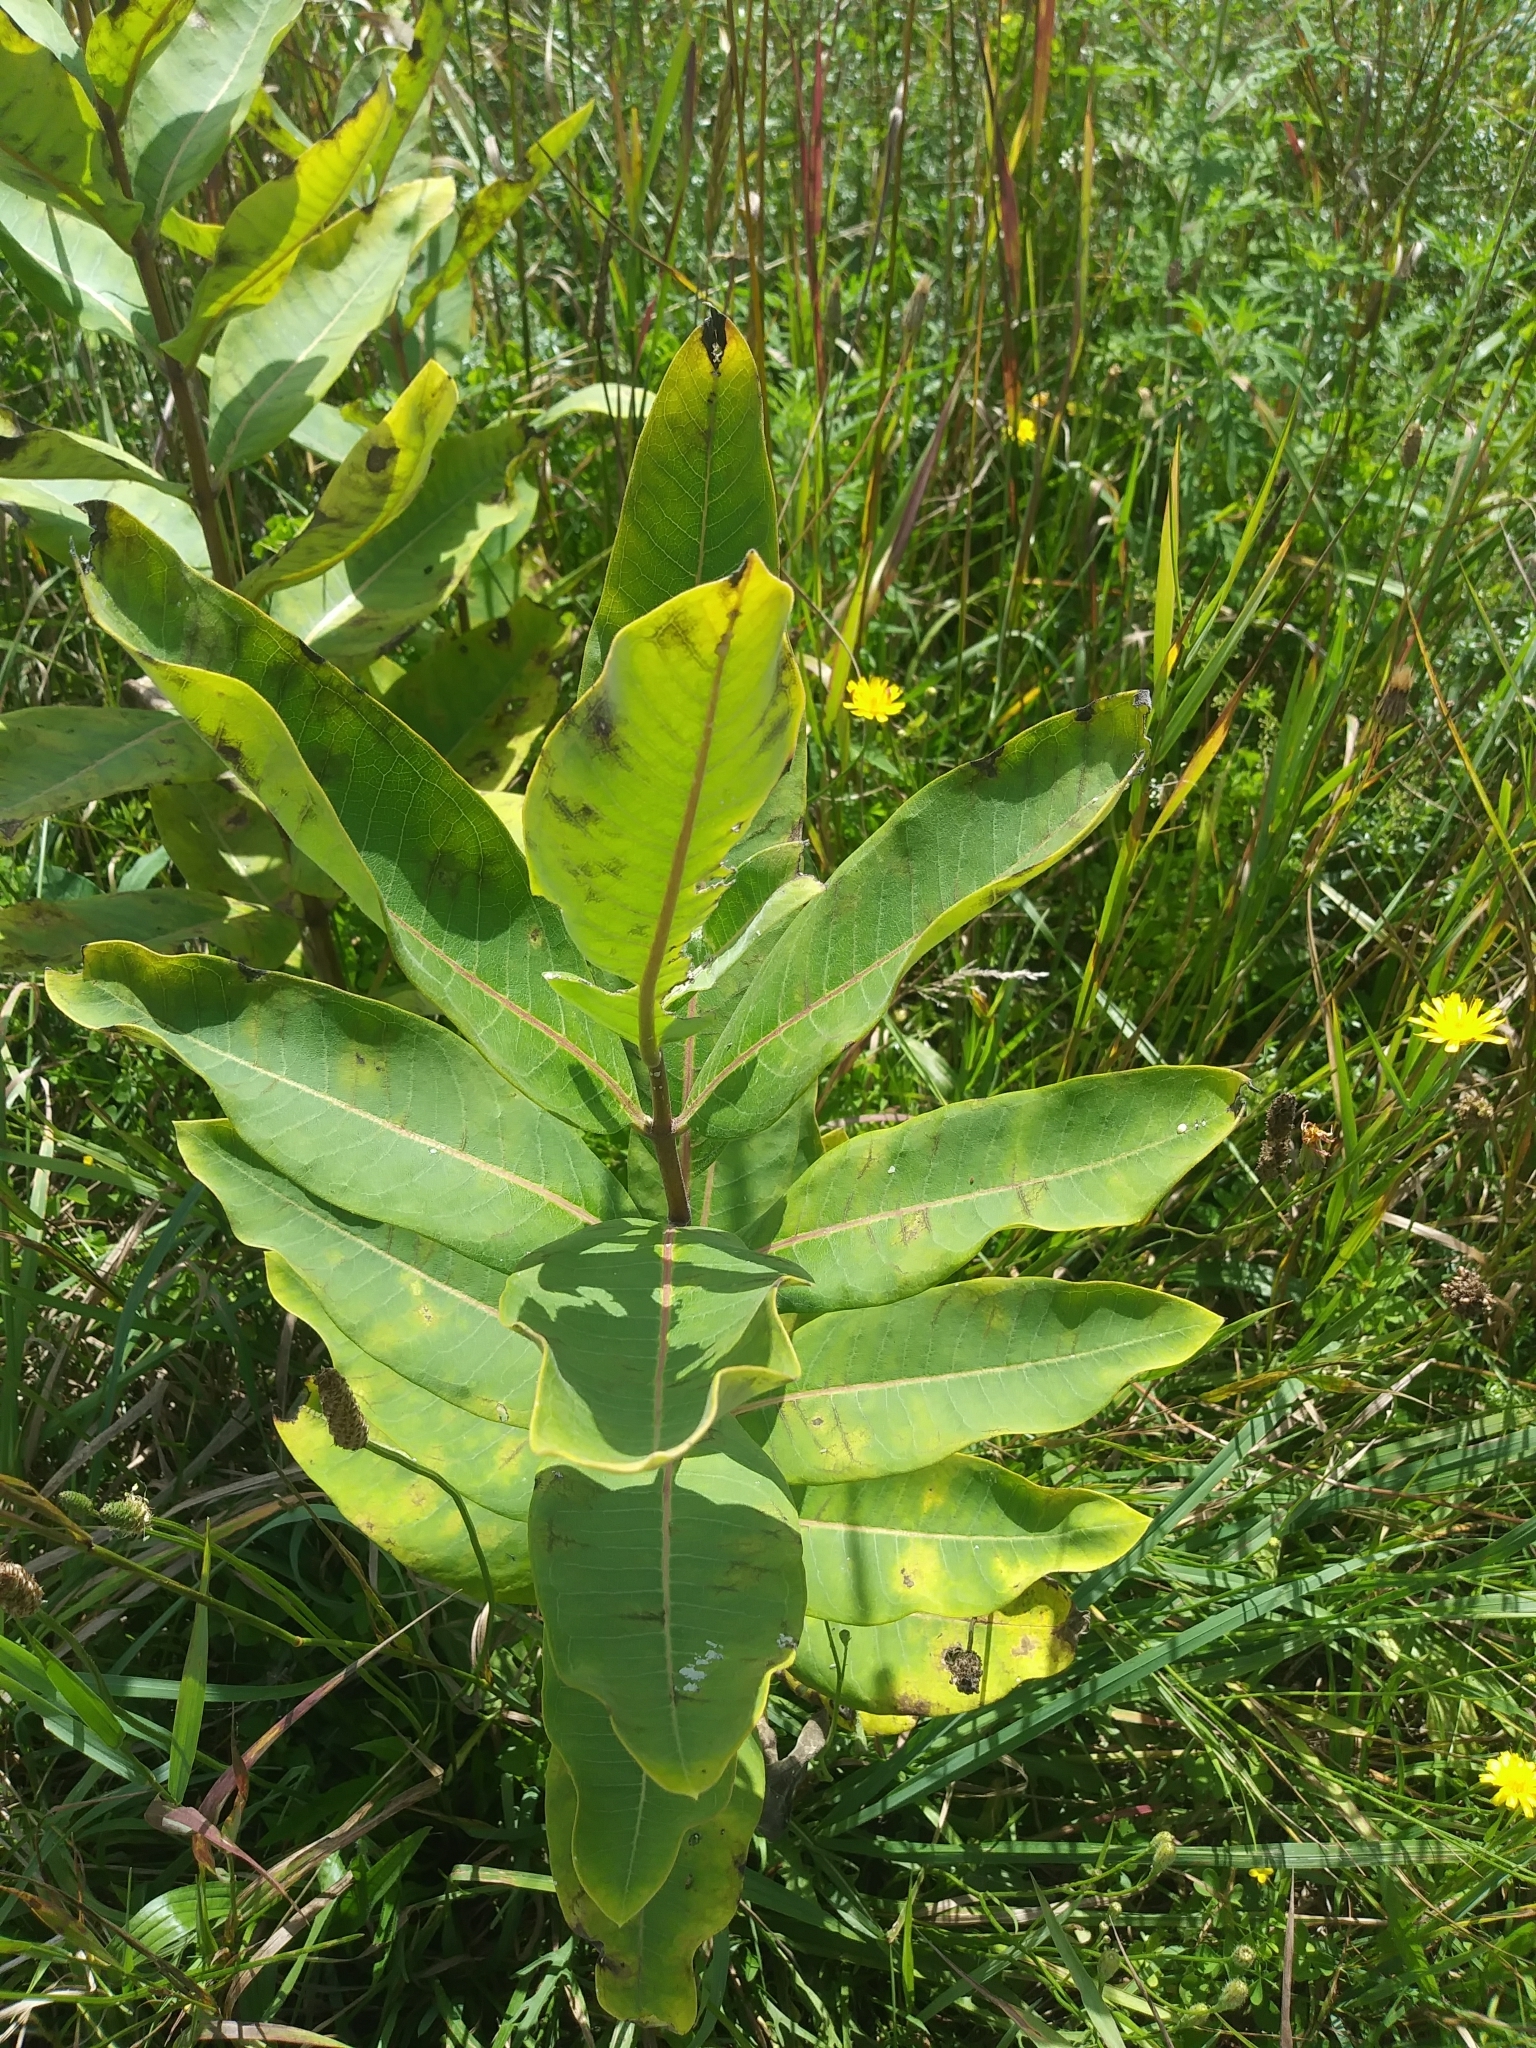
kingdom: Plantae
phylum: Tracheophyta
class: Magnoliopsida
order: Gentianales
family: Apocynaceae
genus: Asclepias
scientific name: Asclepias syriaca
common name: Common milkweed
